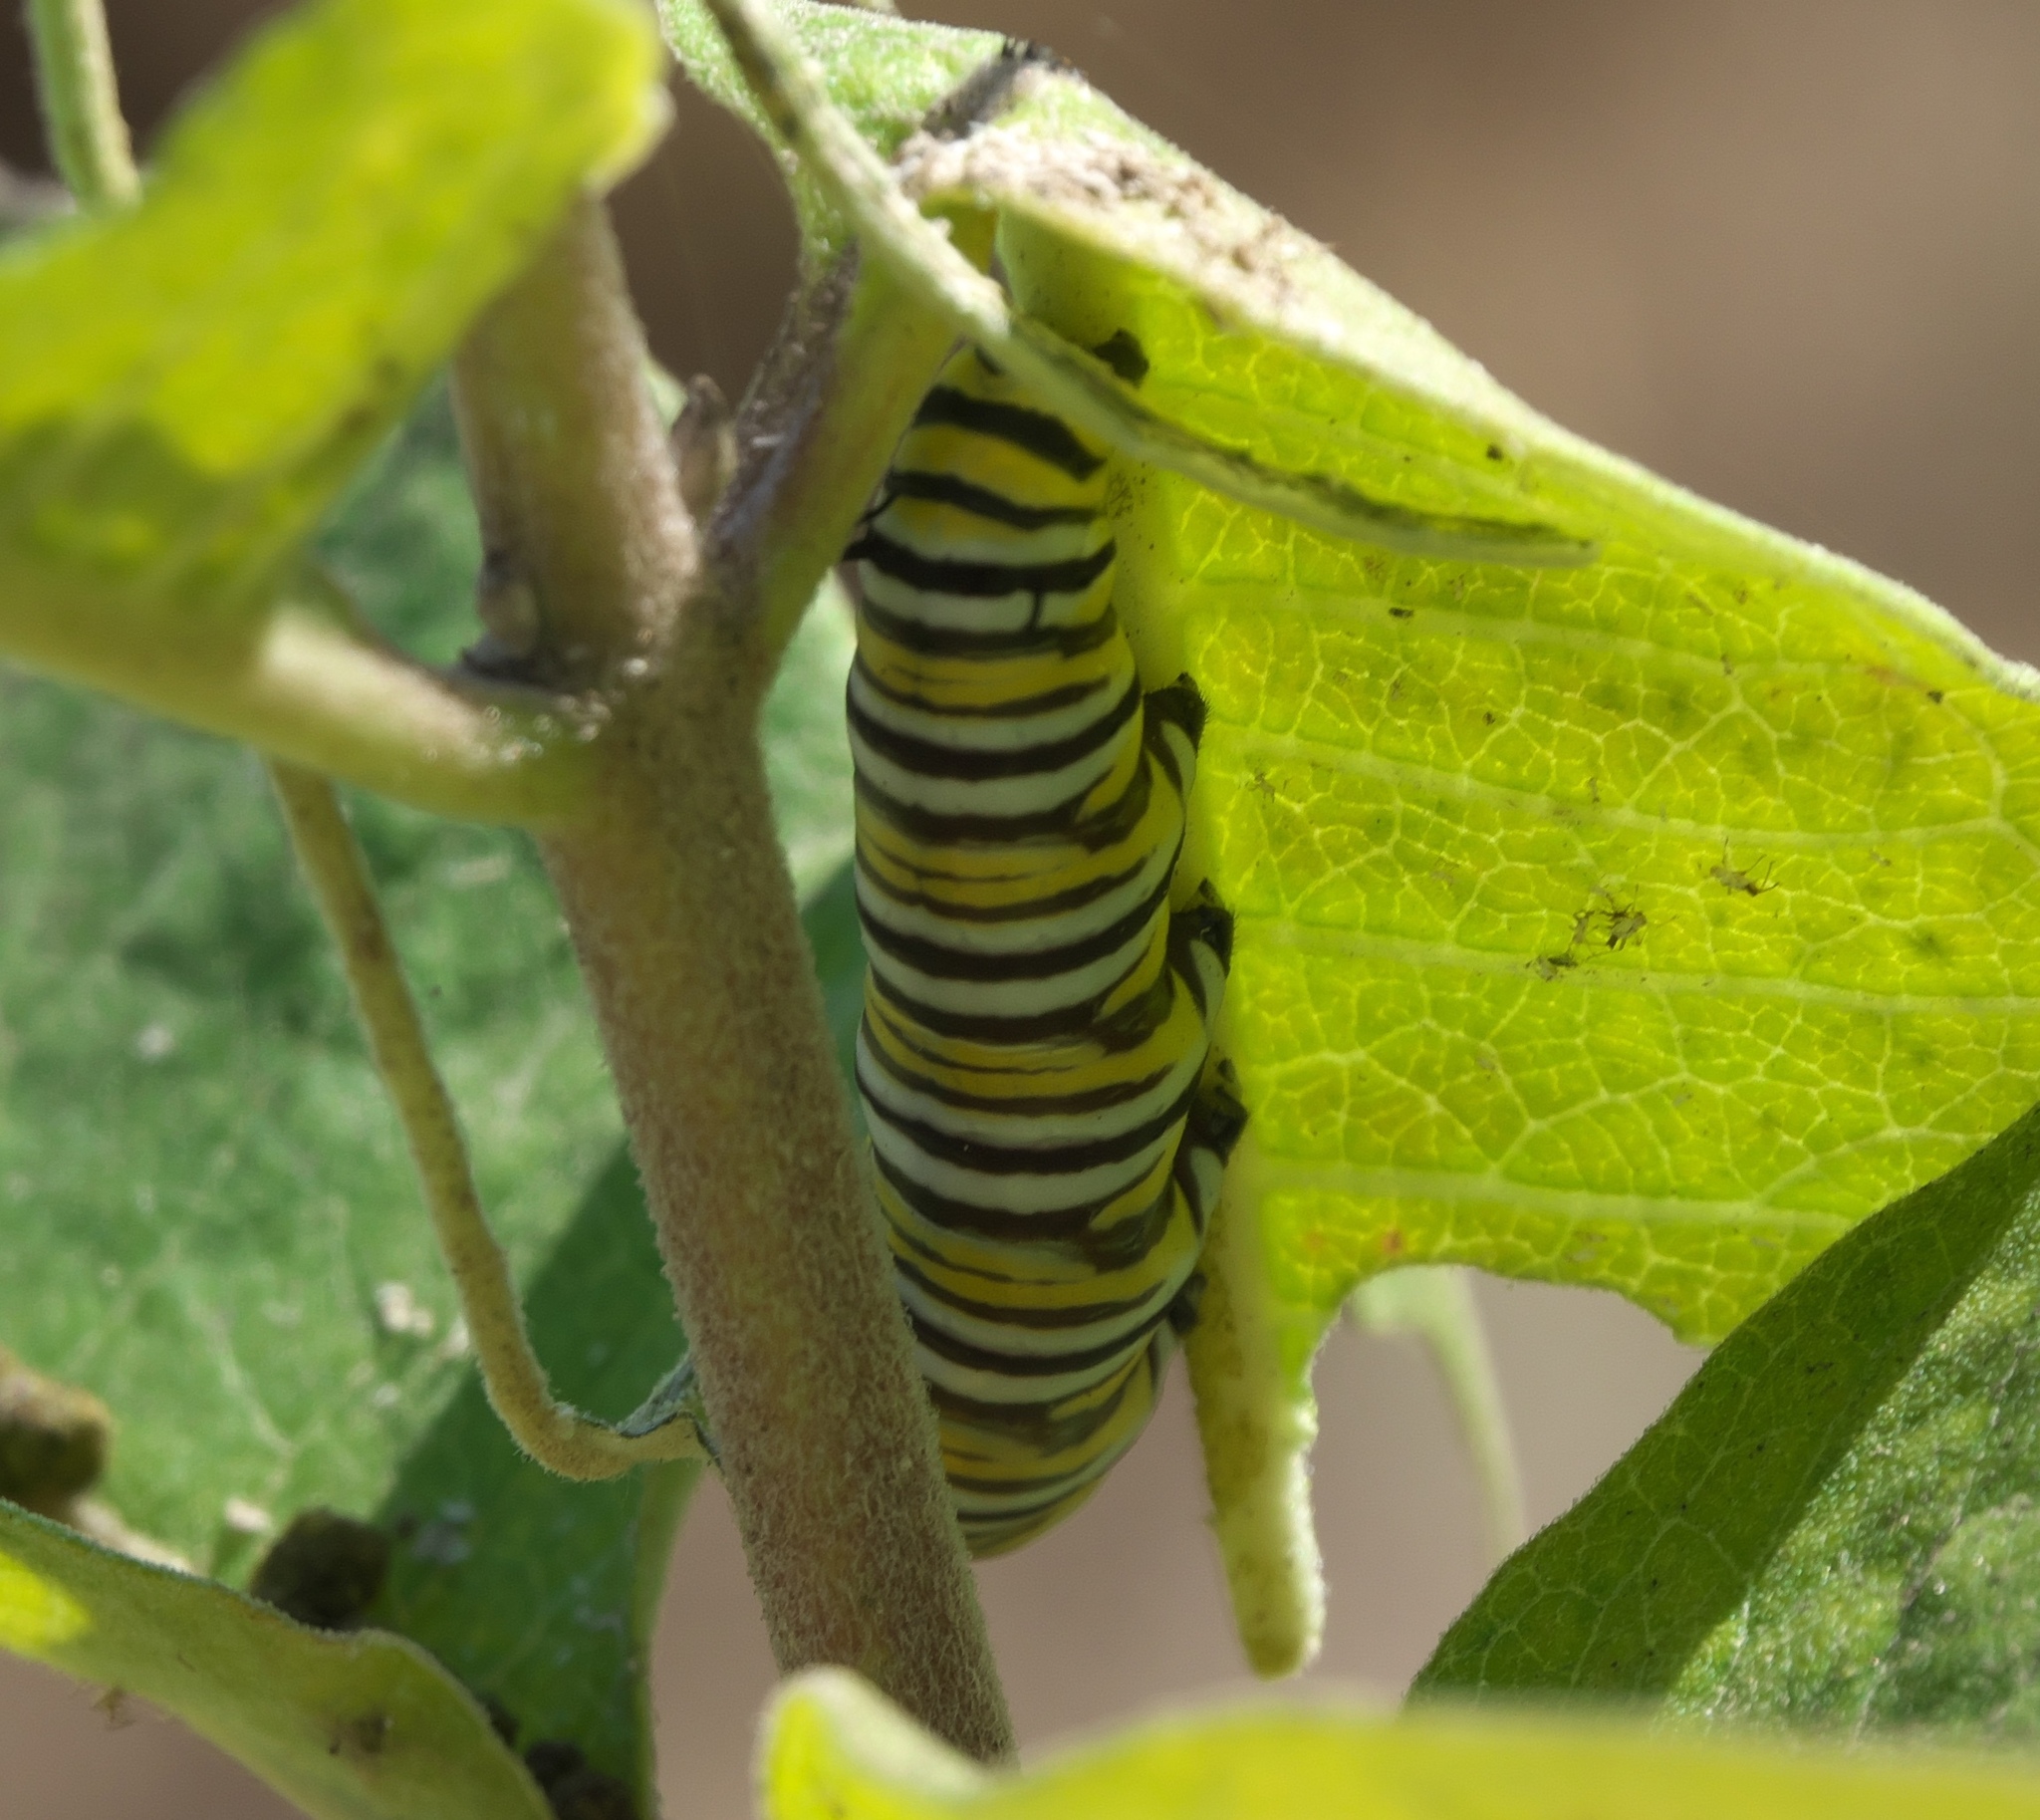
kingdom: Animalia
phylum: Arthropoda
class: Insecta
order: Lepidoptera
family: Nymphalidae
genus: Danaus
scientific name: Danaus plexippus
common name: Monarch
